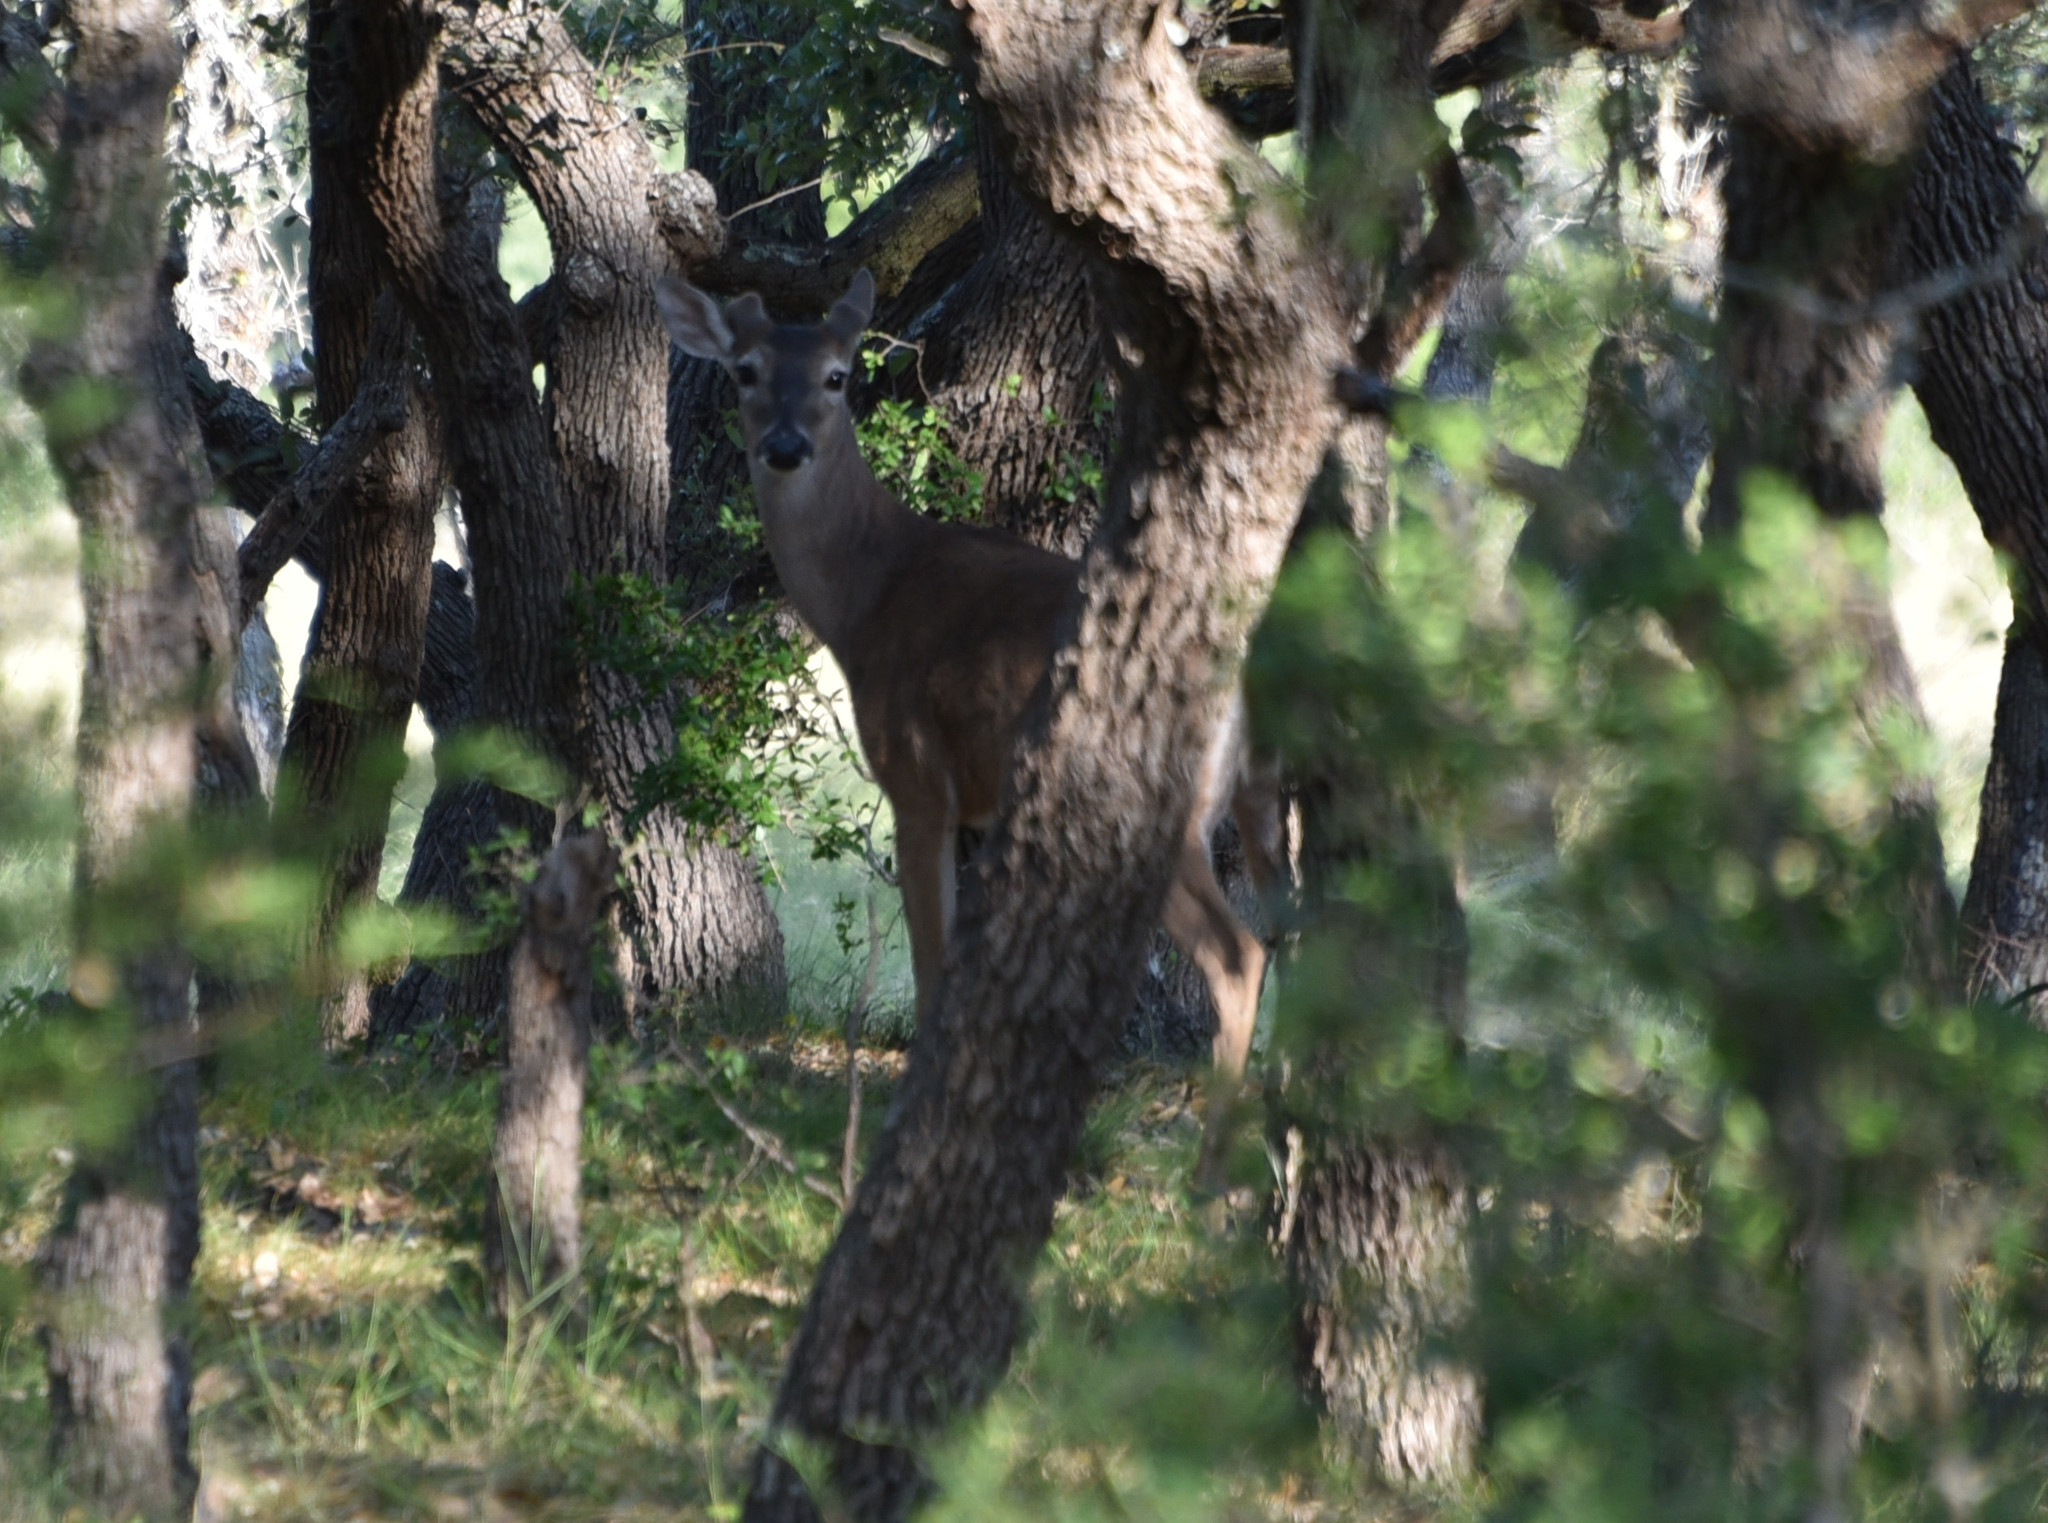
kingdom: Animalia
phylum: Chordata
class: Mammalia
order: Artiodactyla
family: Cervidae
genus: Odocoileus
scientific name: Odocoileus virginianus
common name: White-tailed deer
